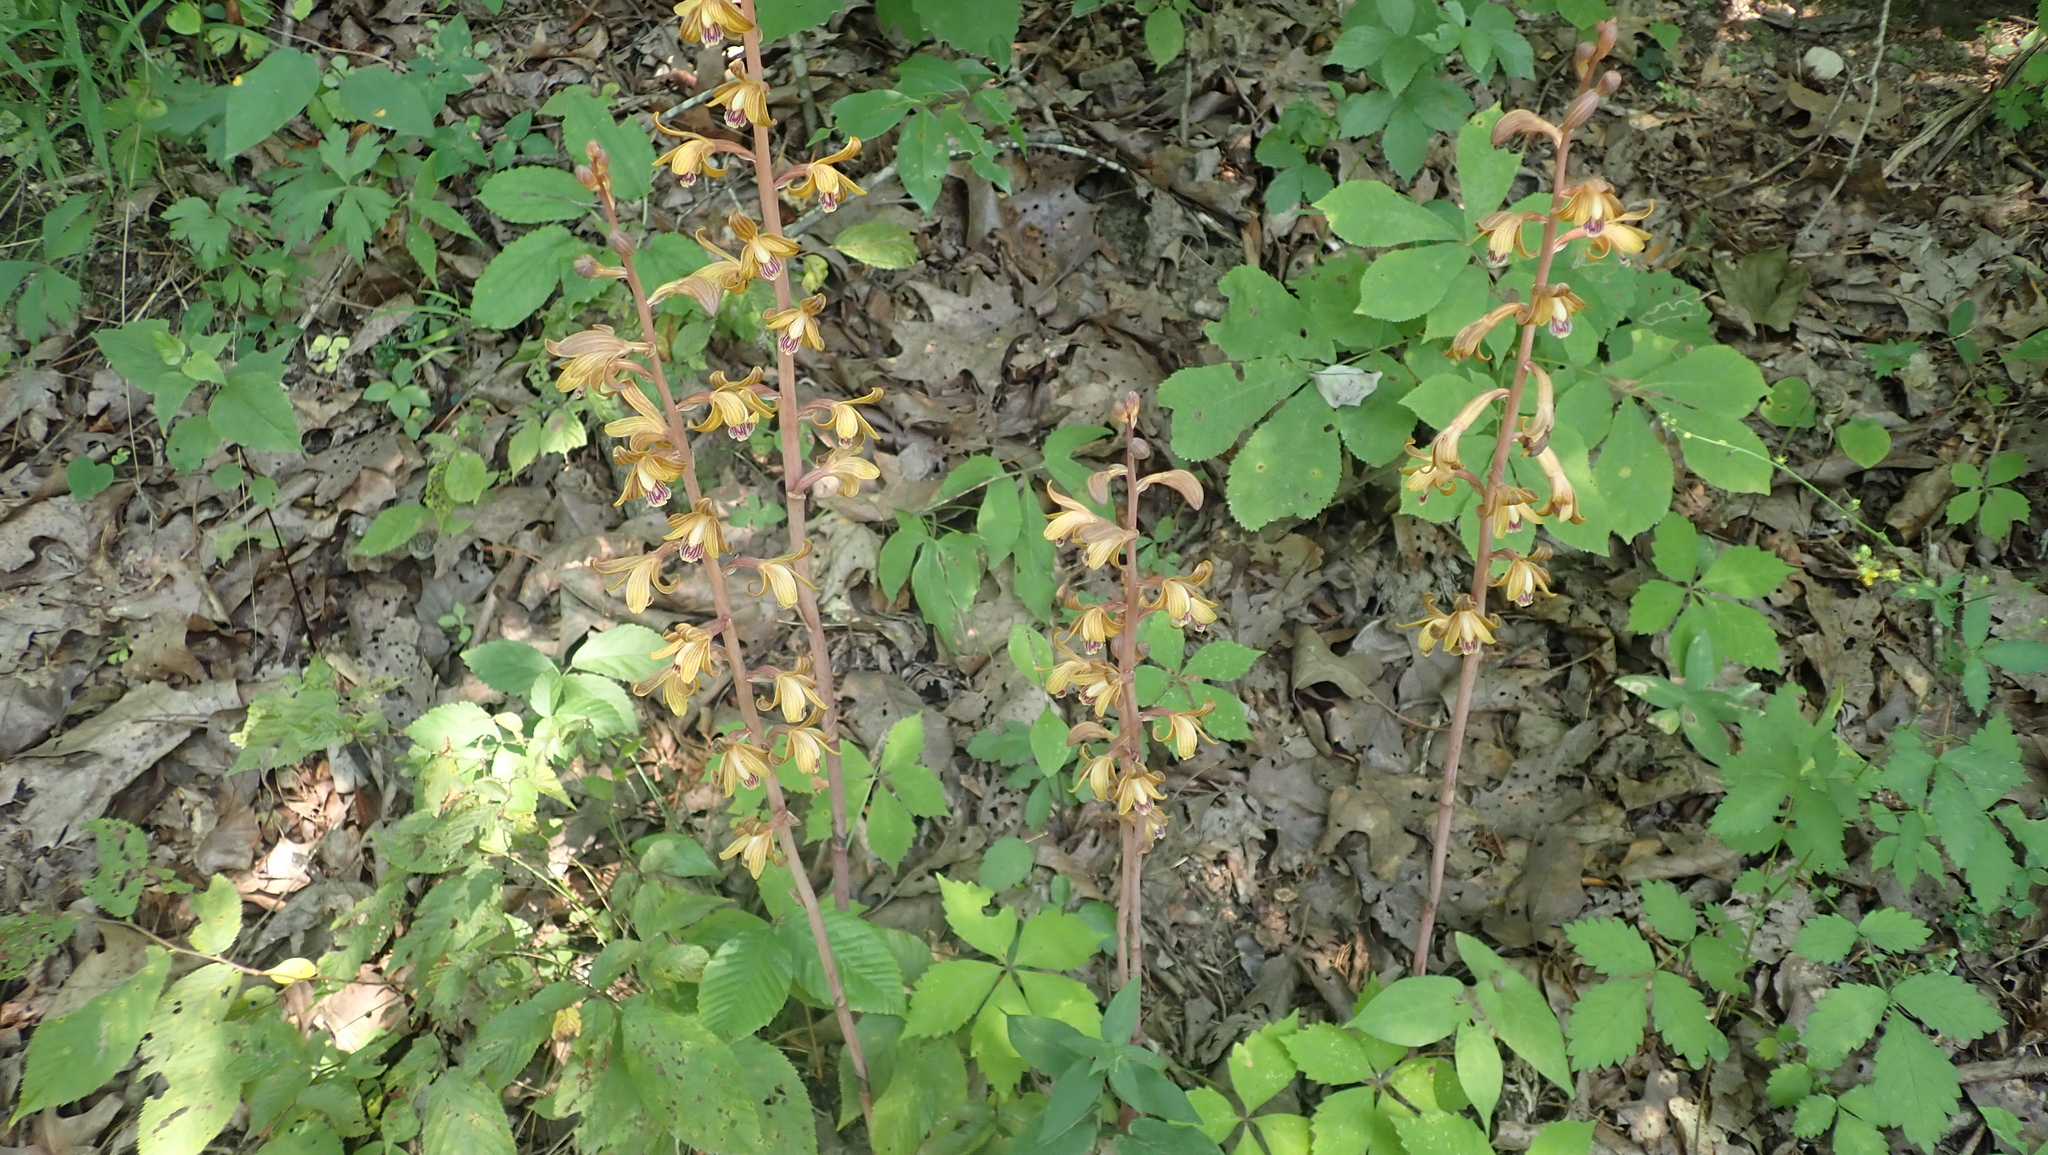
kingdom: Plantae
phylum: Tracheophyta
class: Liliopsida
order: Asparagales
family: Orchidaceae
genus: Bletia
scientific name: Bletia spicata
